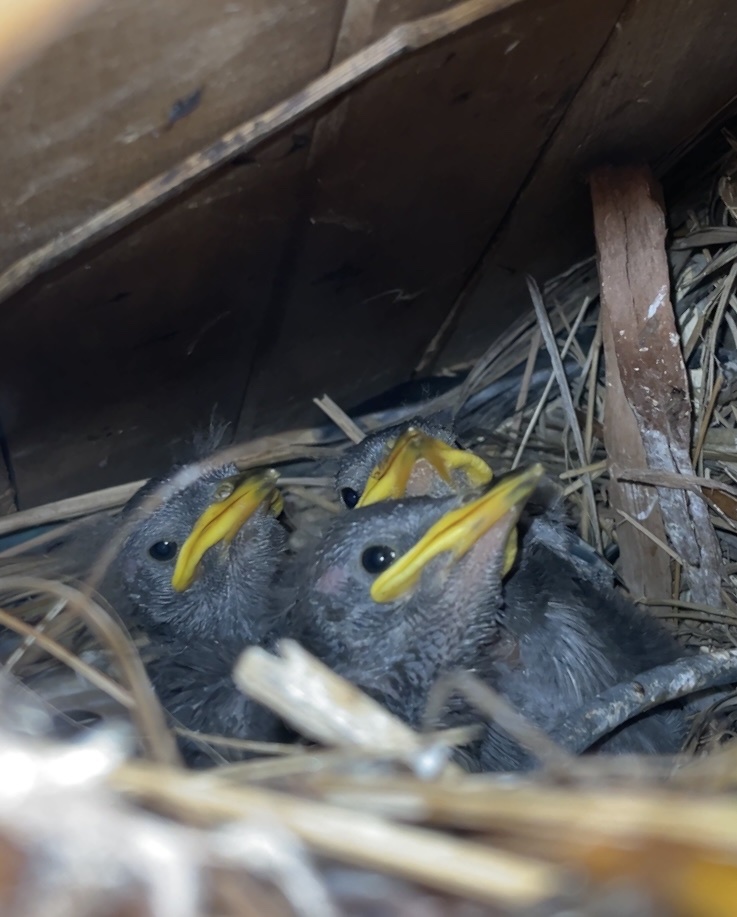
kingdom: Animalia
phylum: Chordata
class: Aves
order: Passeriformes
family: Sturnidae
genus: Sturnus
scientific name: Sturnus vulgaris
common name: Common starling
